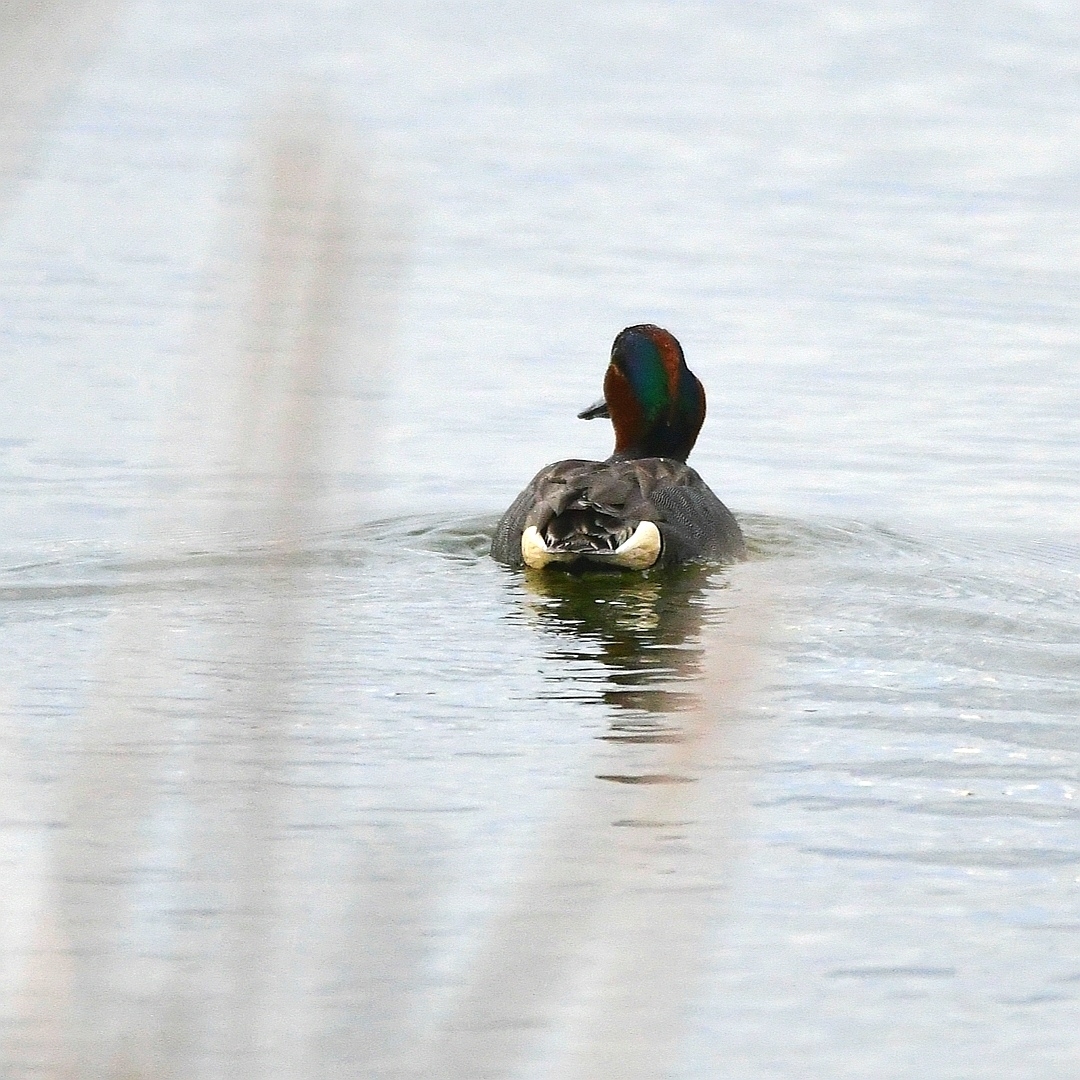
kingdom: Animalia
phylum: Chordata
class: Aves
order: Anseriformes
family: Anatidae
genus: Anas
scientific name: Anas crecca
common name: Eurasian teal
